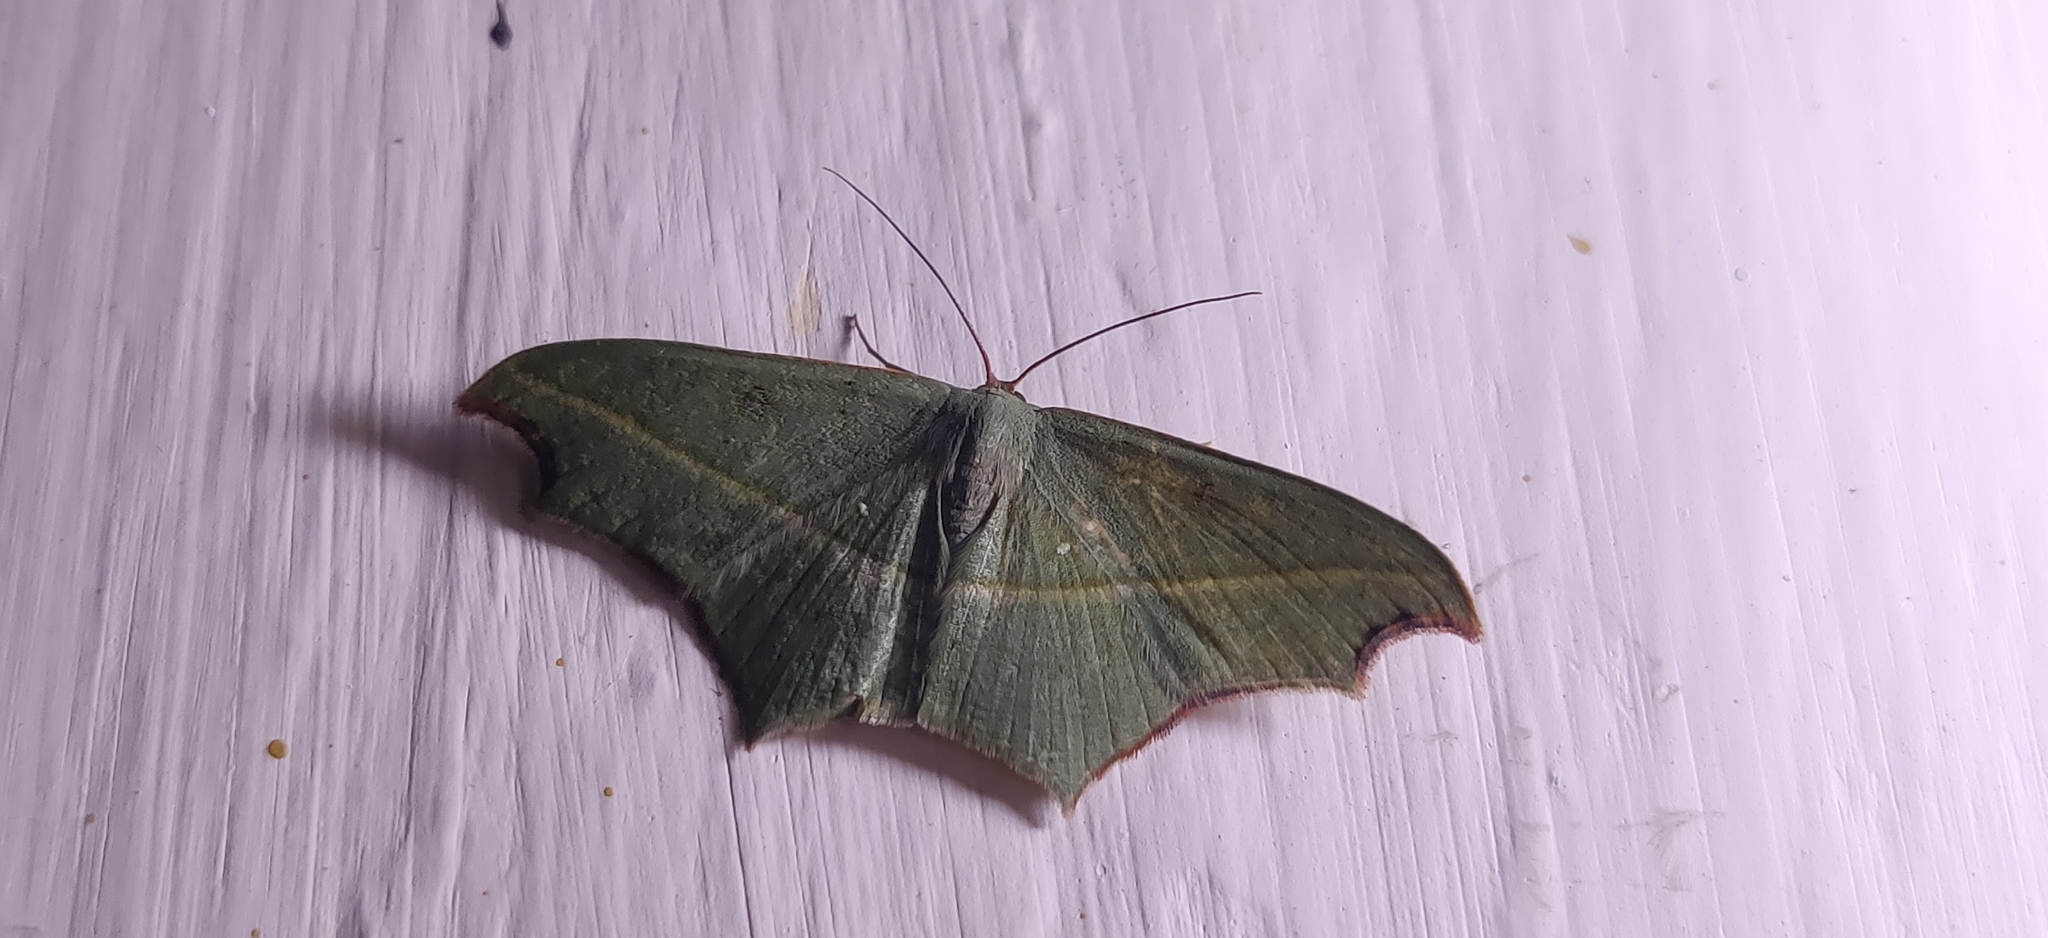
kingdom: Animalia
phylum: Arthropoda
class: Insecta
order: Lepidoptera
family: Geometridae
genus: Traminda
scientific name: Traminda aventiaria
